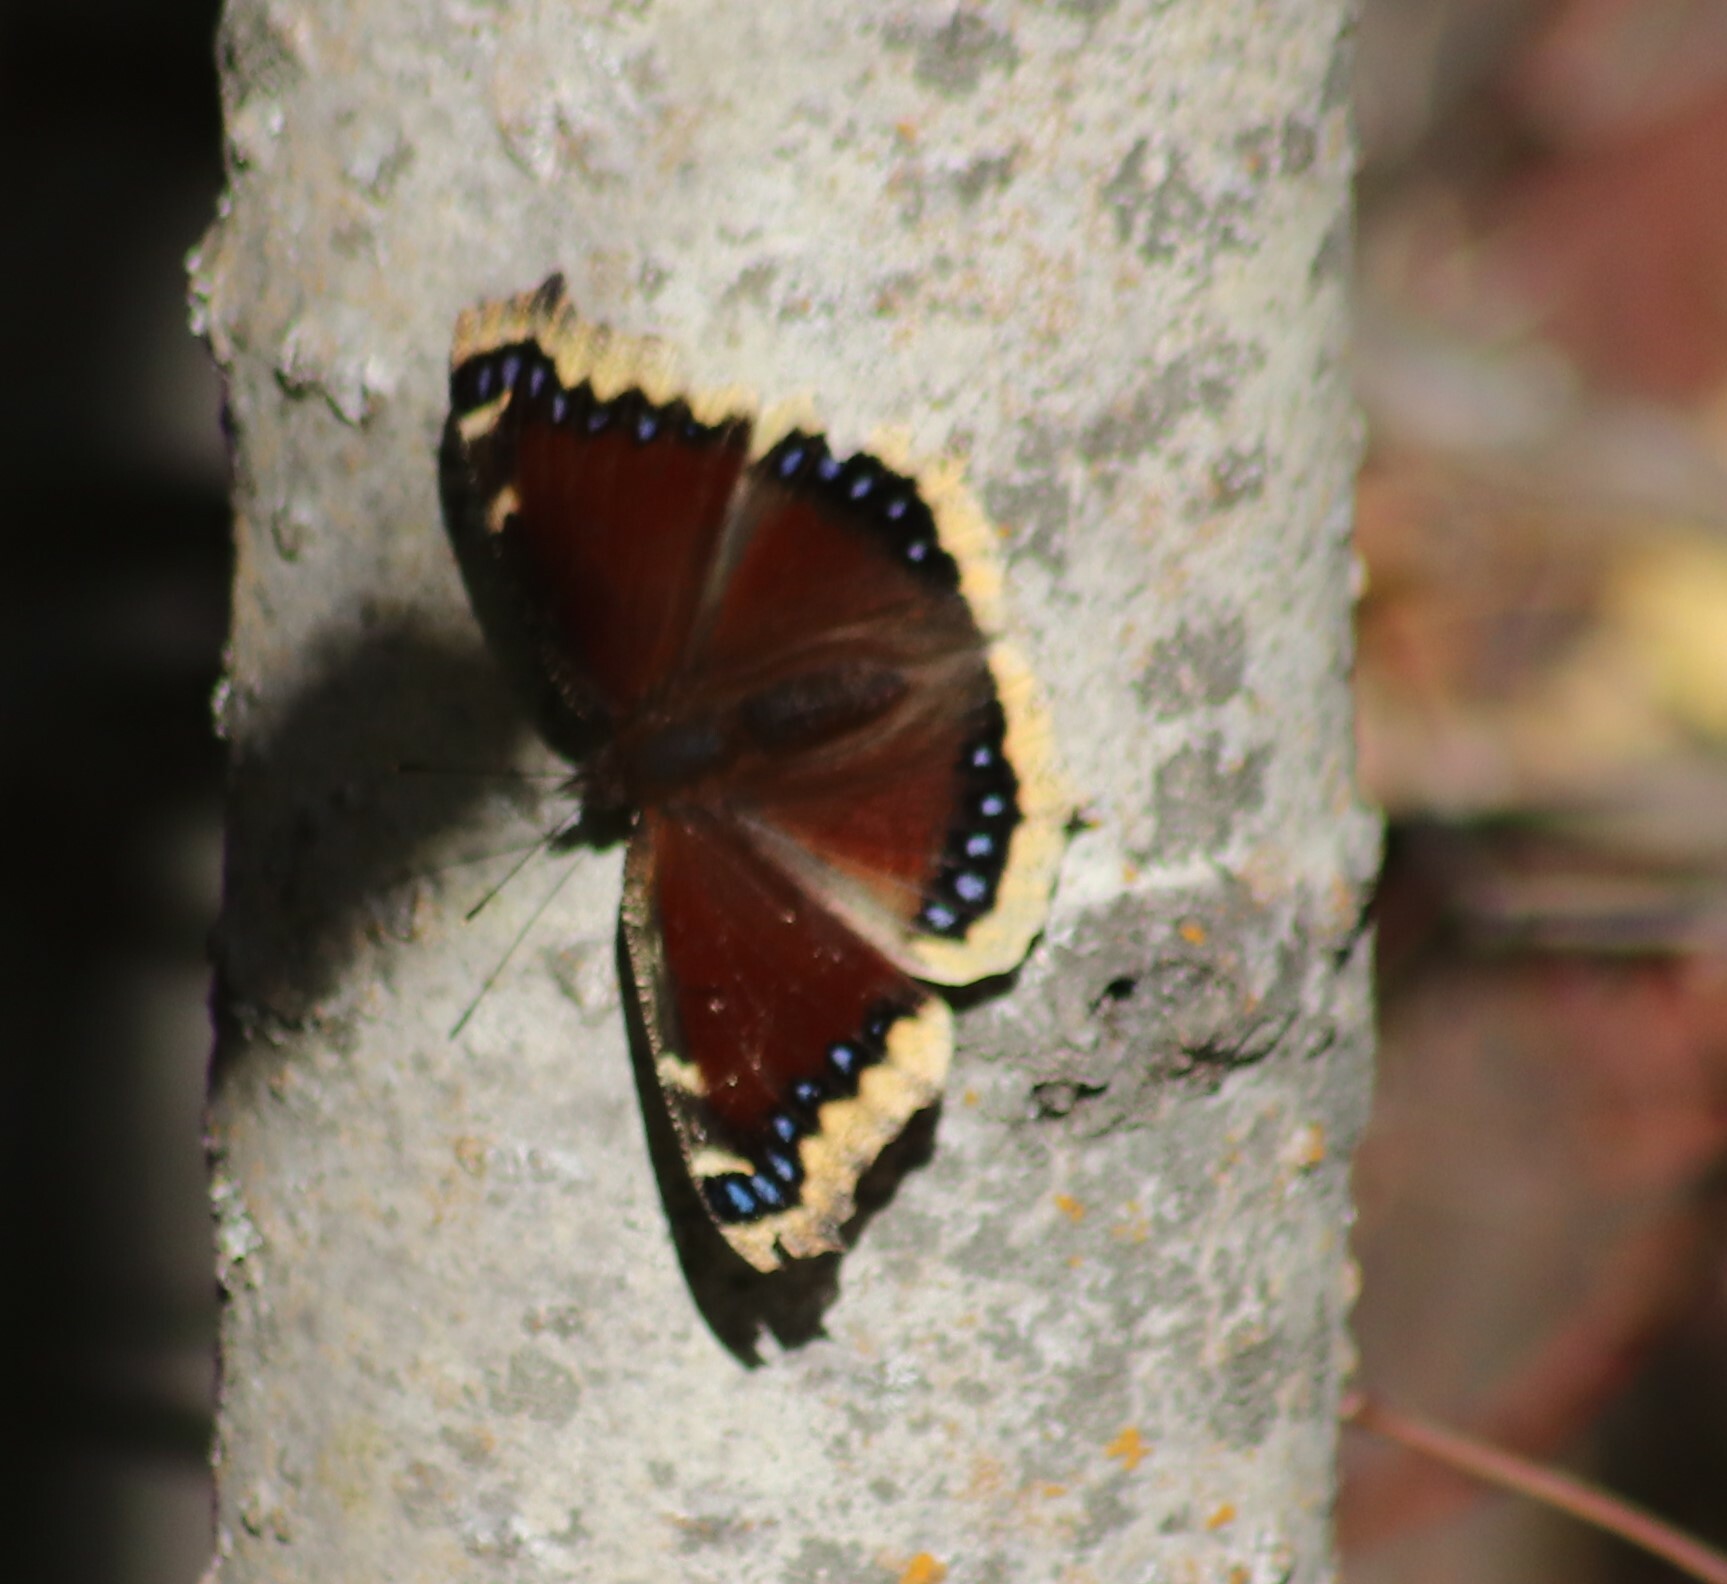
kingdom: Animalia
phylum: Arthropoda
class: Insecta
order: Lepidoptera
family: Nymphalidae
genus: Nymphalis
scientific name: Nymphalis antiopa
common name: Camberwell beauty
